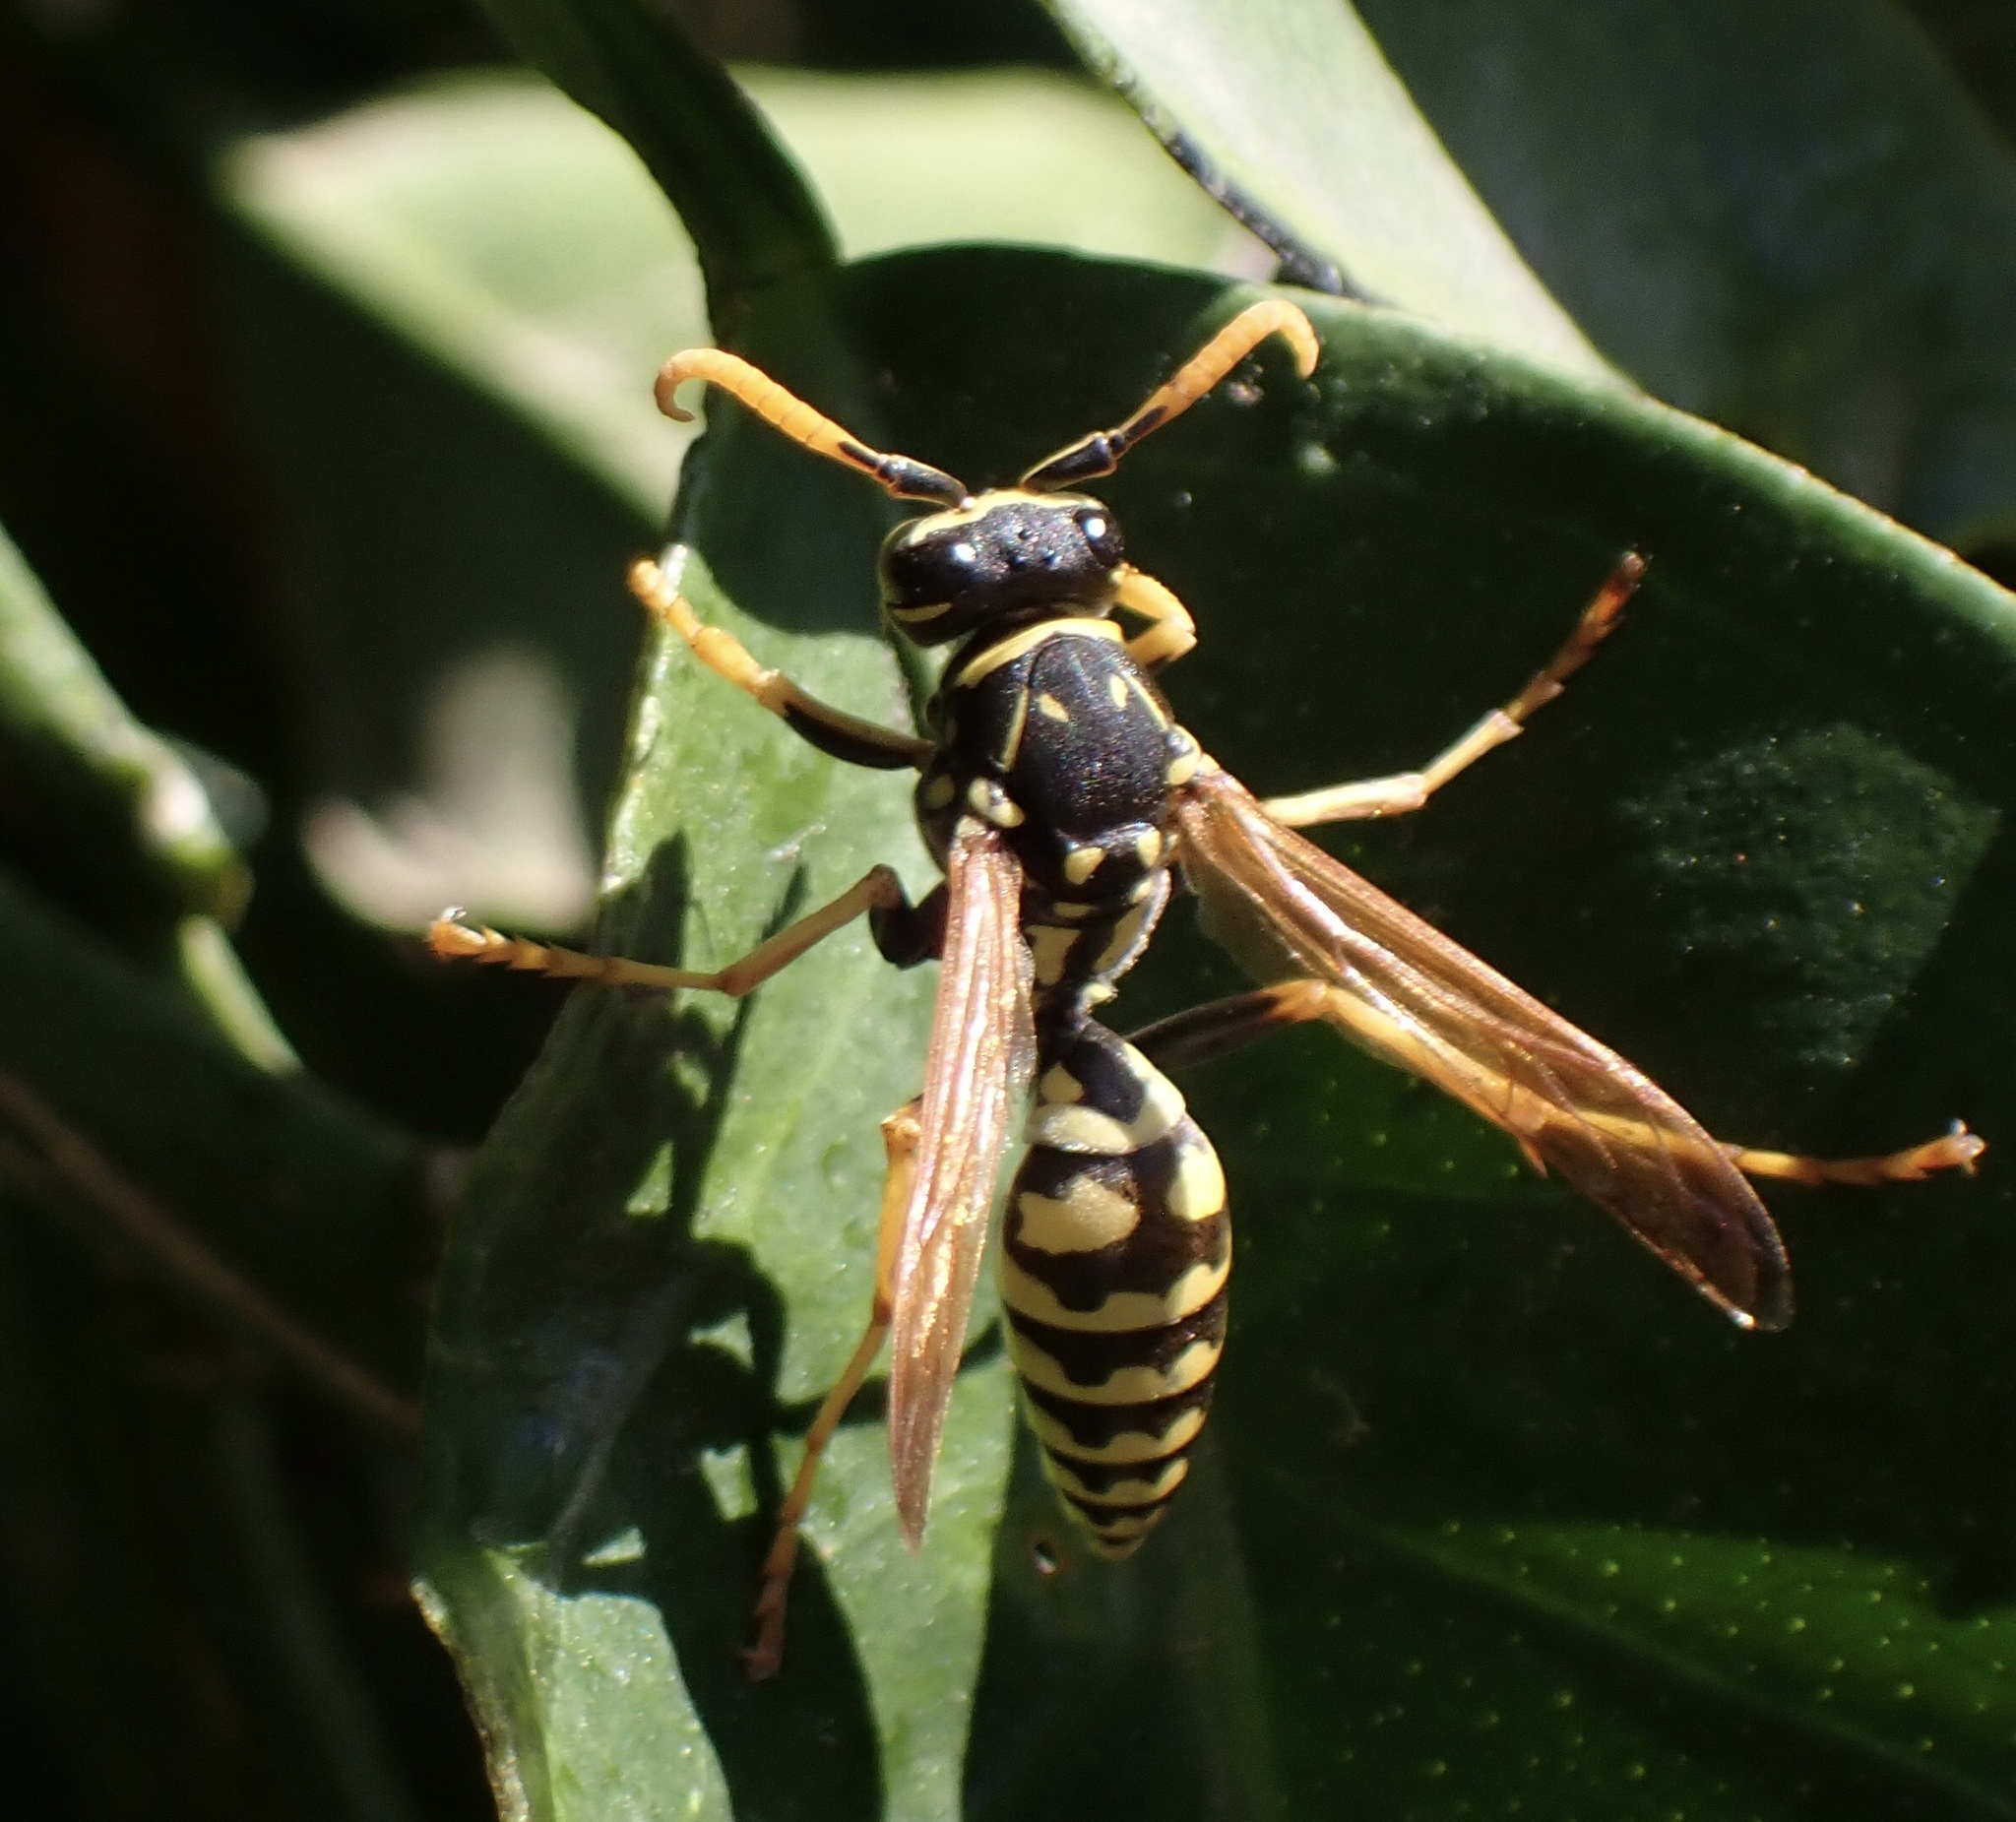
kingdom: Animalia
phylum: Arthropoda
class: Insecta
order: Hymenoptera
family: Eumenidae
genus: Polistes
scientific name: Polistes dominula
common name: Paper wasp
